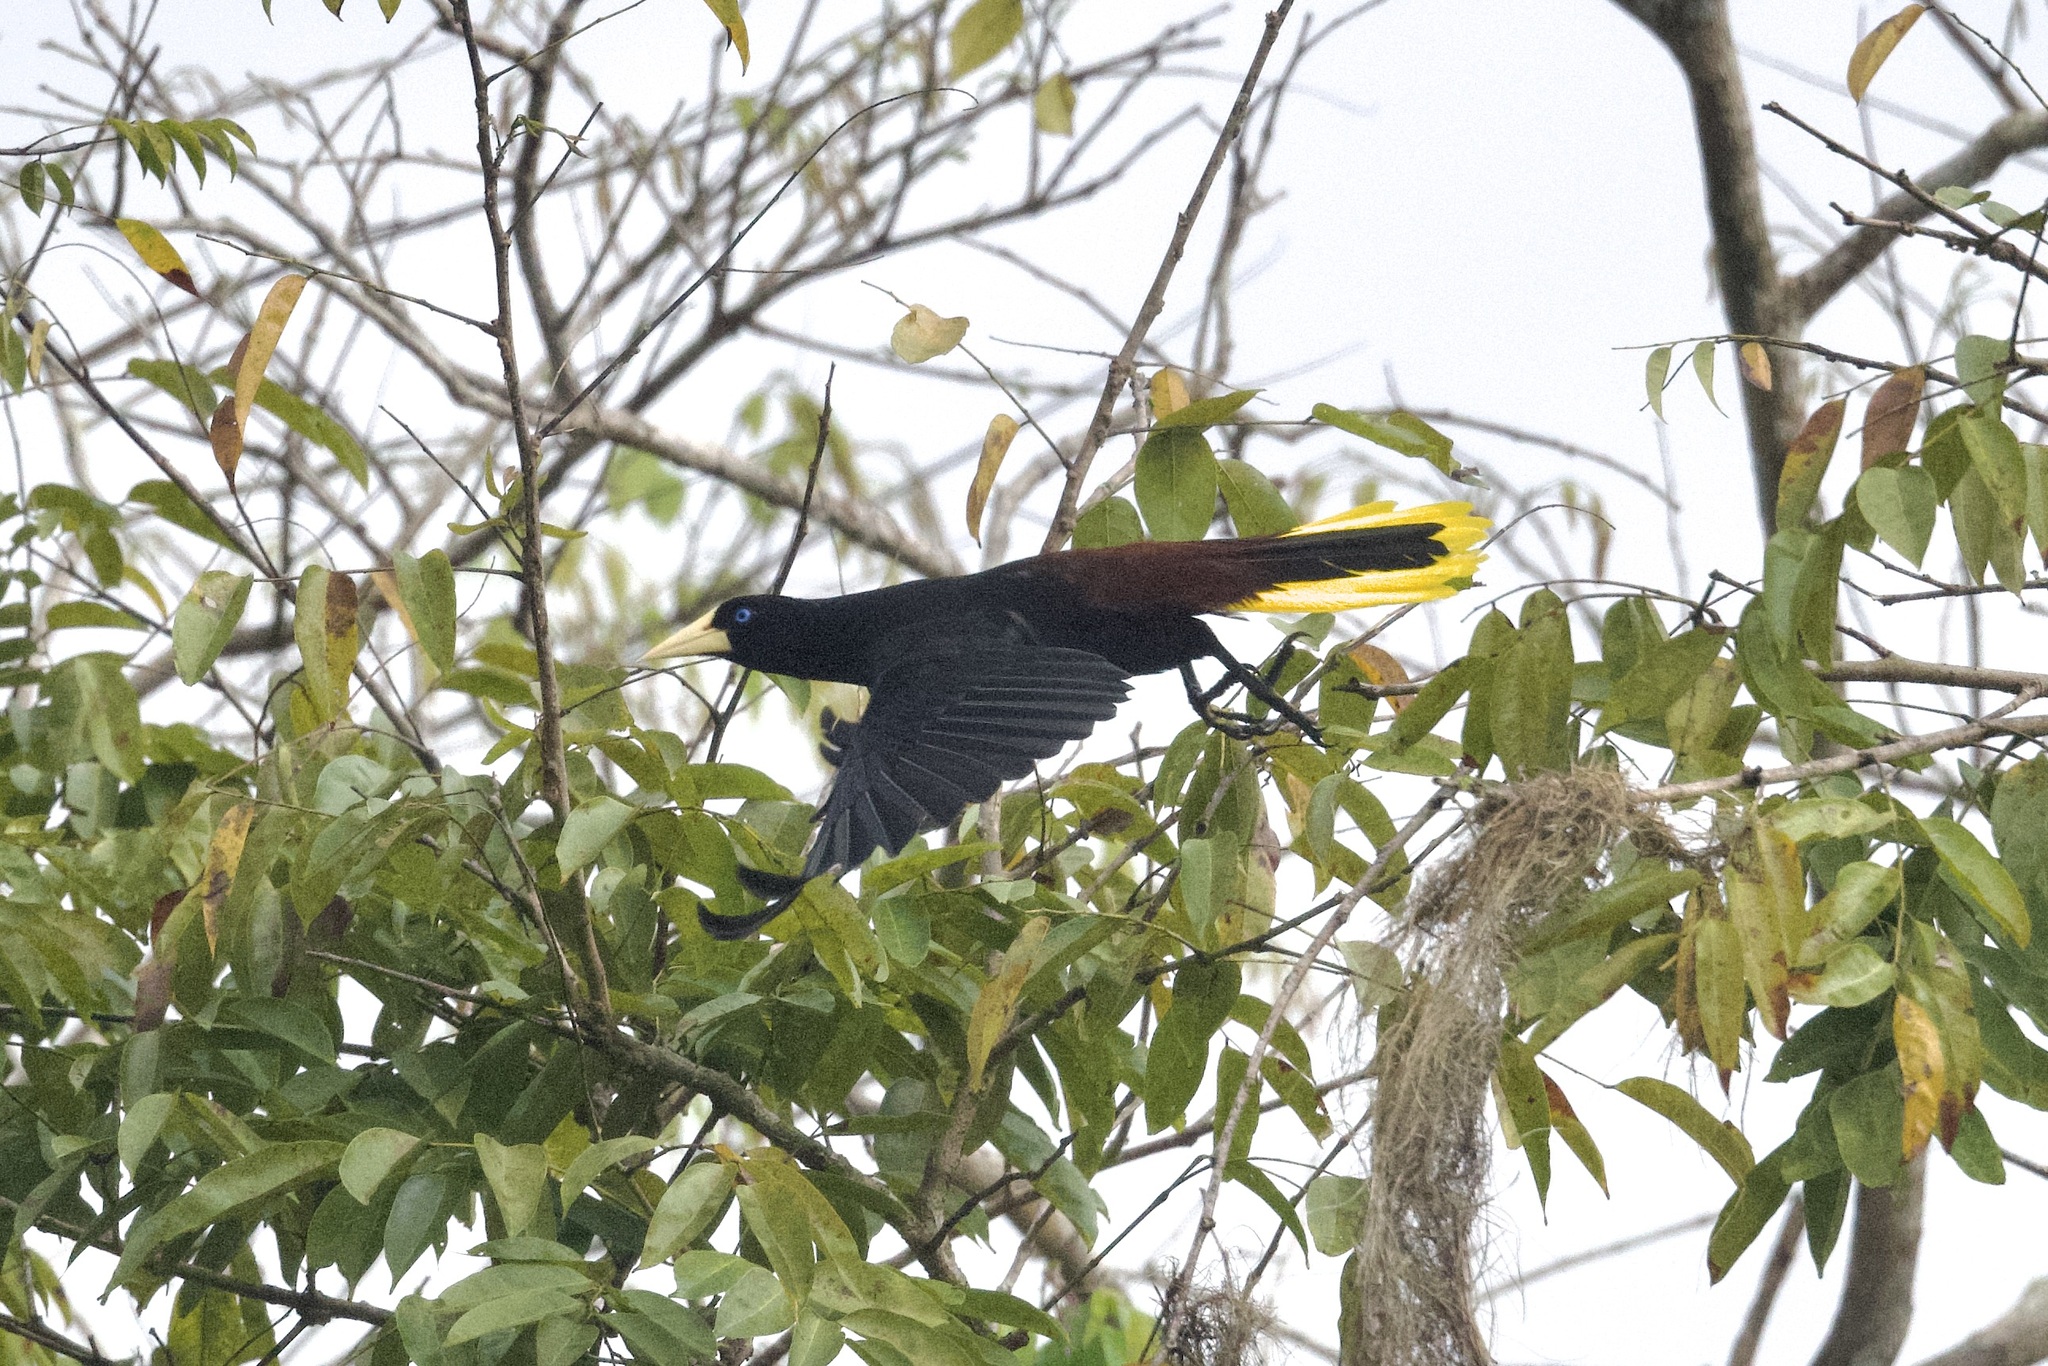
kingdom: Animalia
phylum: Chordata
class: Aves
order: Passeriformes
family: Icteridae
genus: Psarocolius
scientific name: Psarocolius decumanus
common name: Crested oropendola
